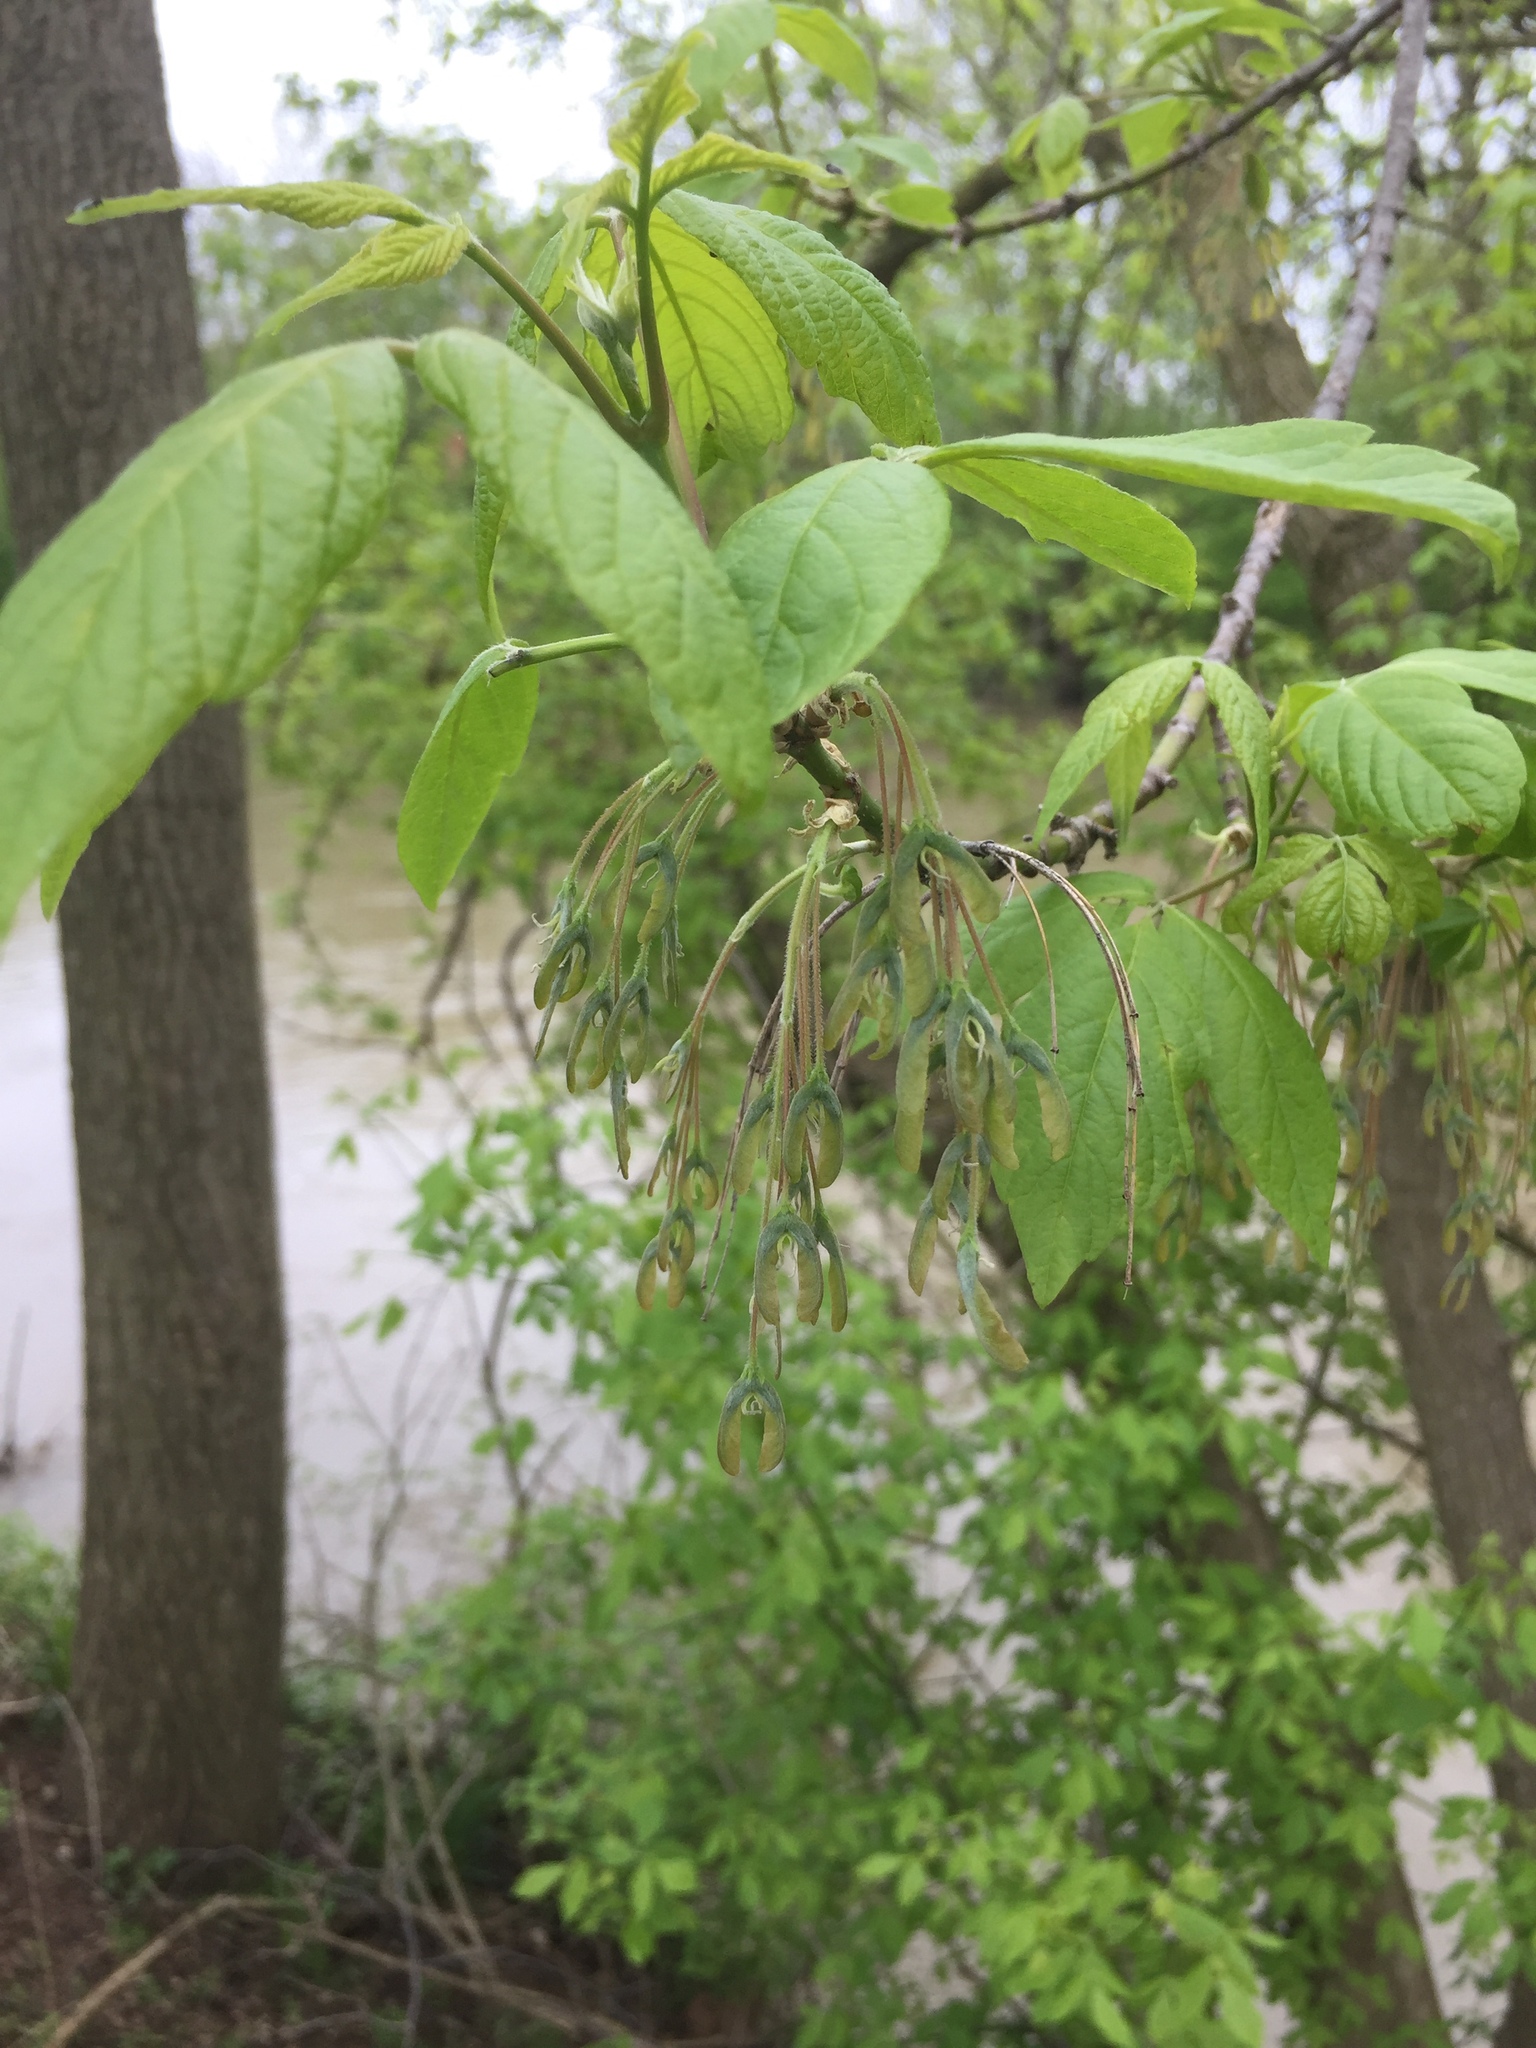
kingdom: Plantae
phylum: Tracheophyta
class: Magnoliopsida
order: Sapindales
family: Sapindaceae
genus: Acer
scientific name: Acer negundo
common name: Ashleaf maple
